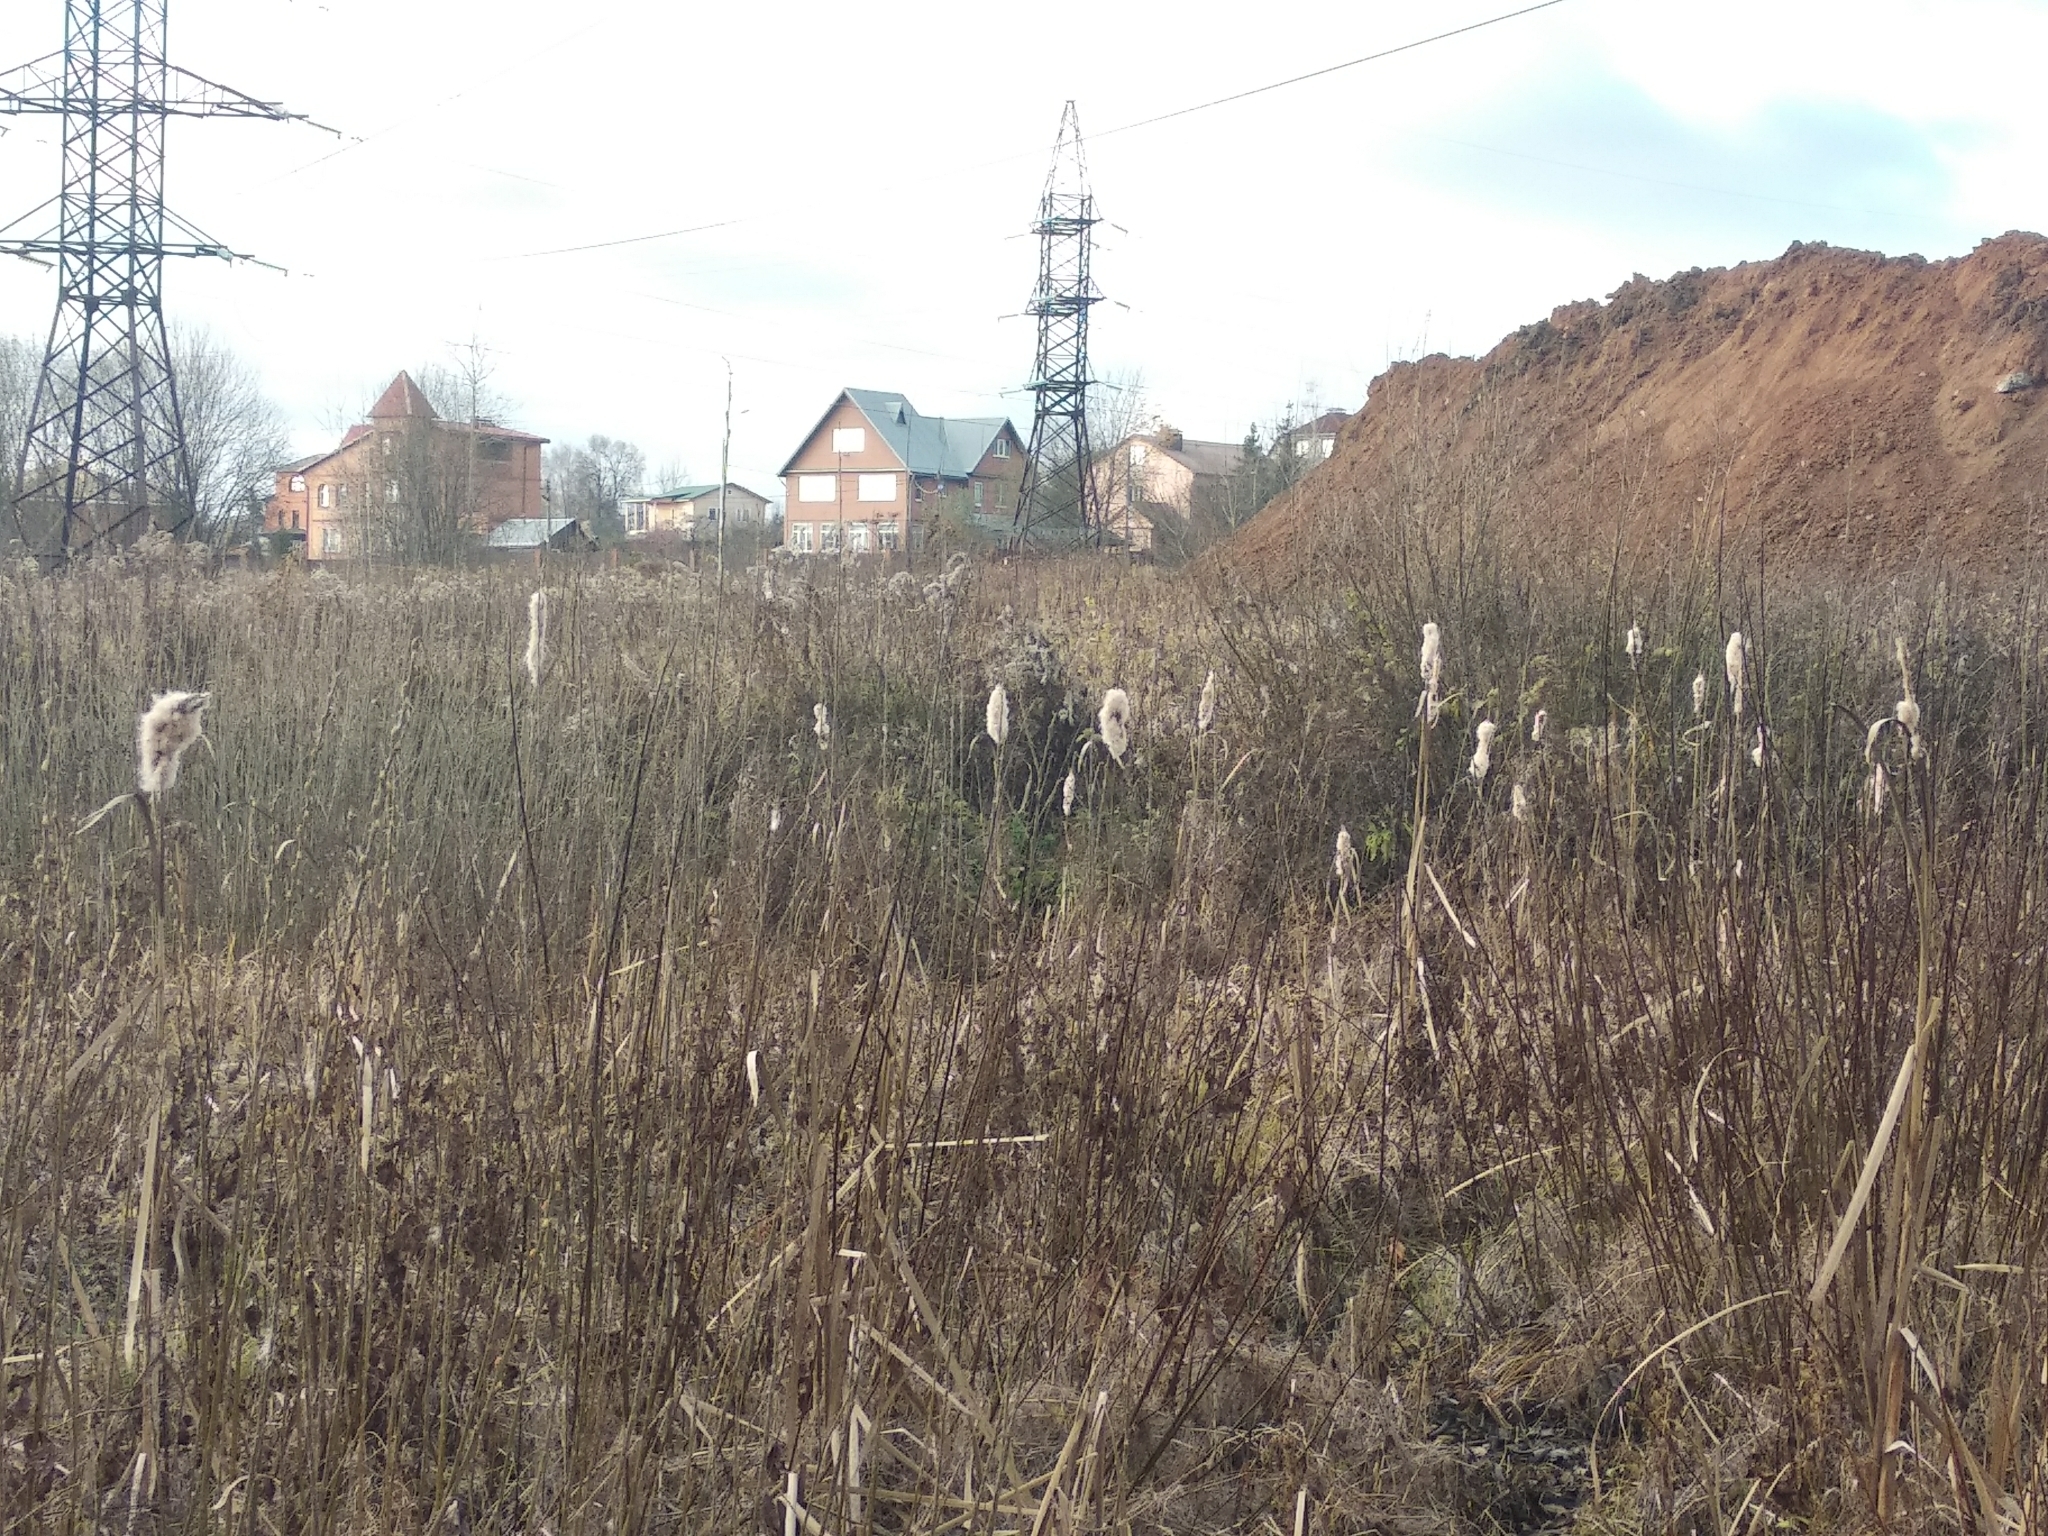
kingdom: Plantae
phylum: Tracheophyta
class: Liliopsida
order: Poales
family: Typhaceae
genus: Typha
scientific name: Typha latifolia
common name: Broadleaf cattail
